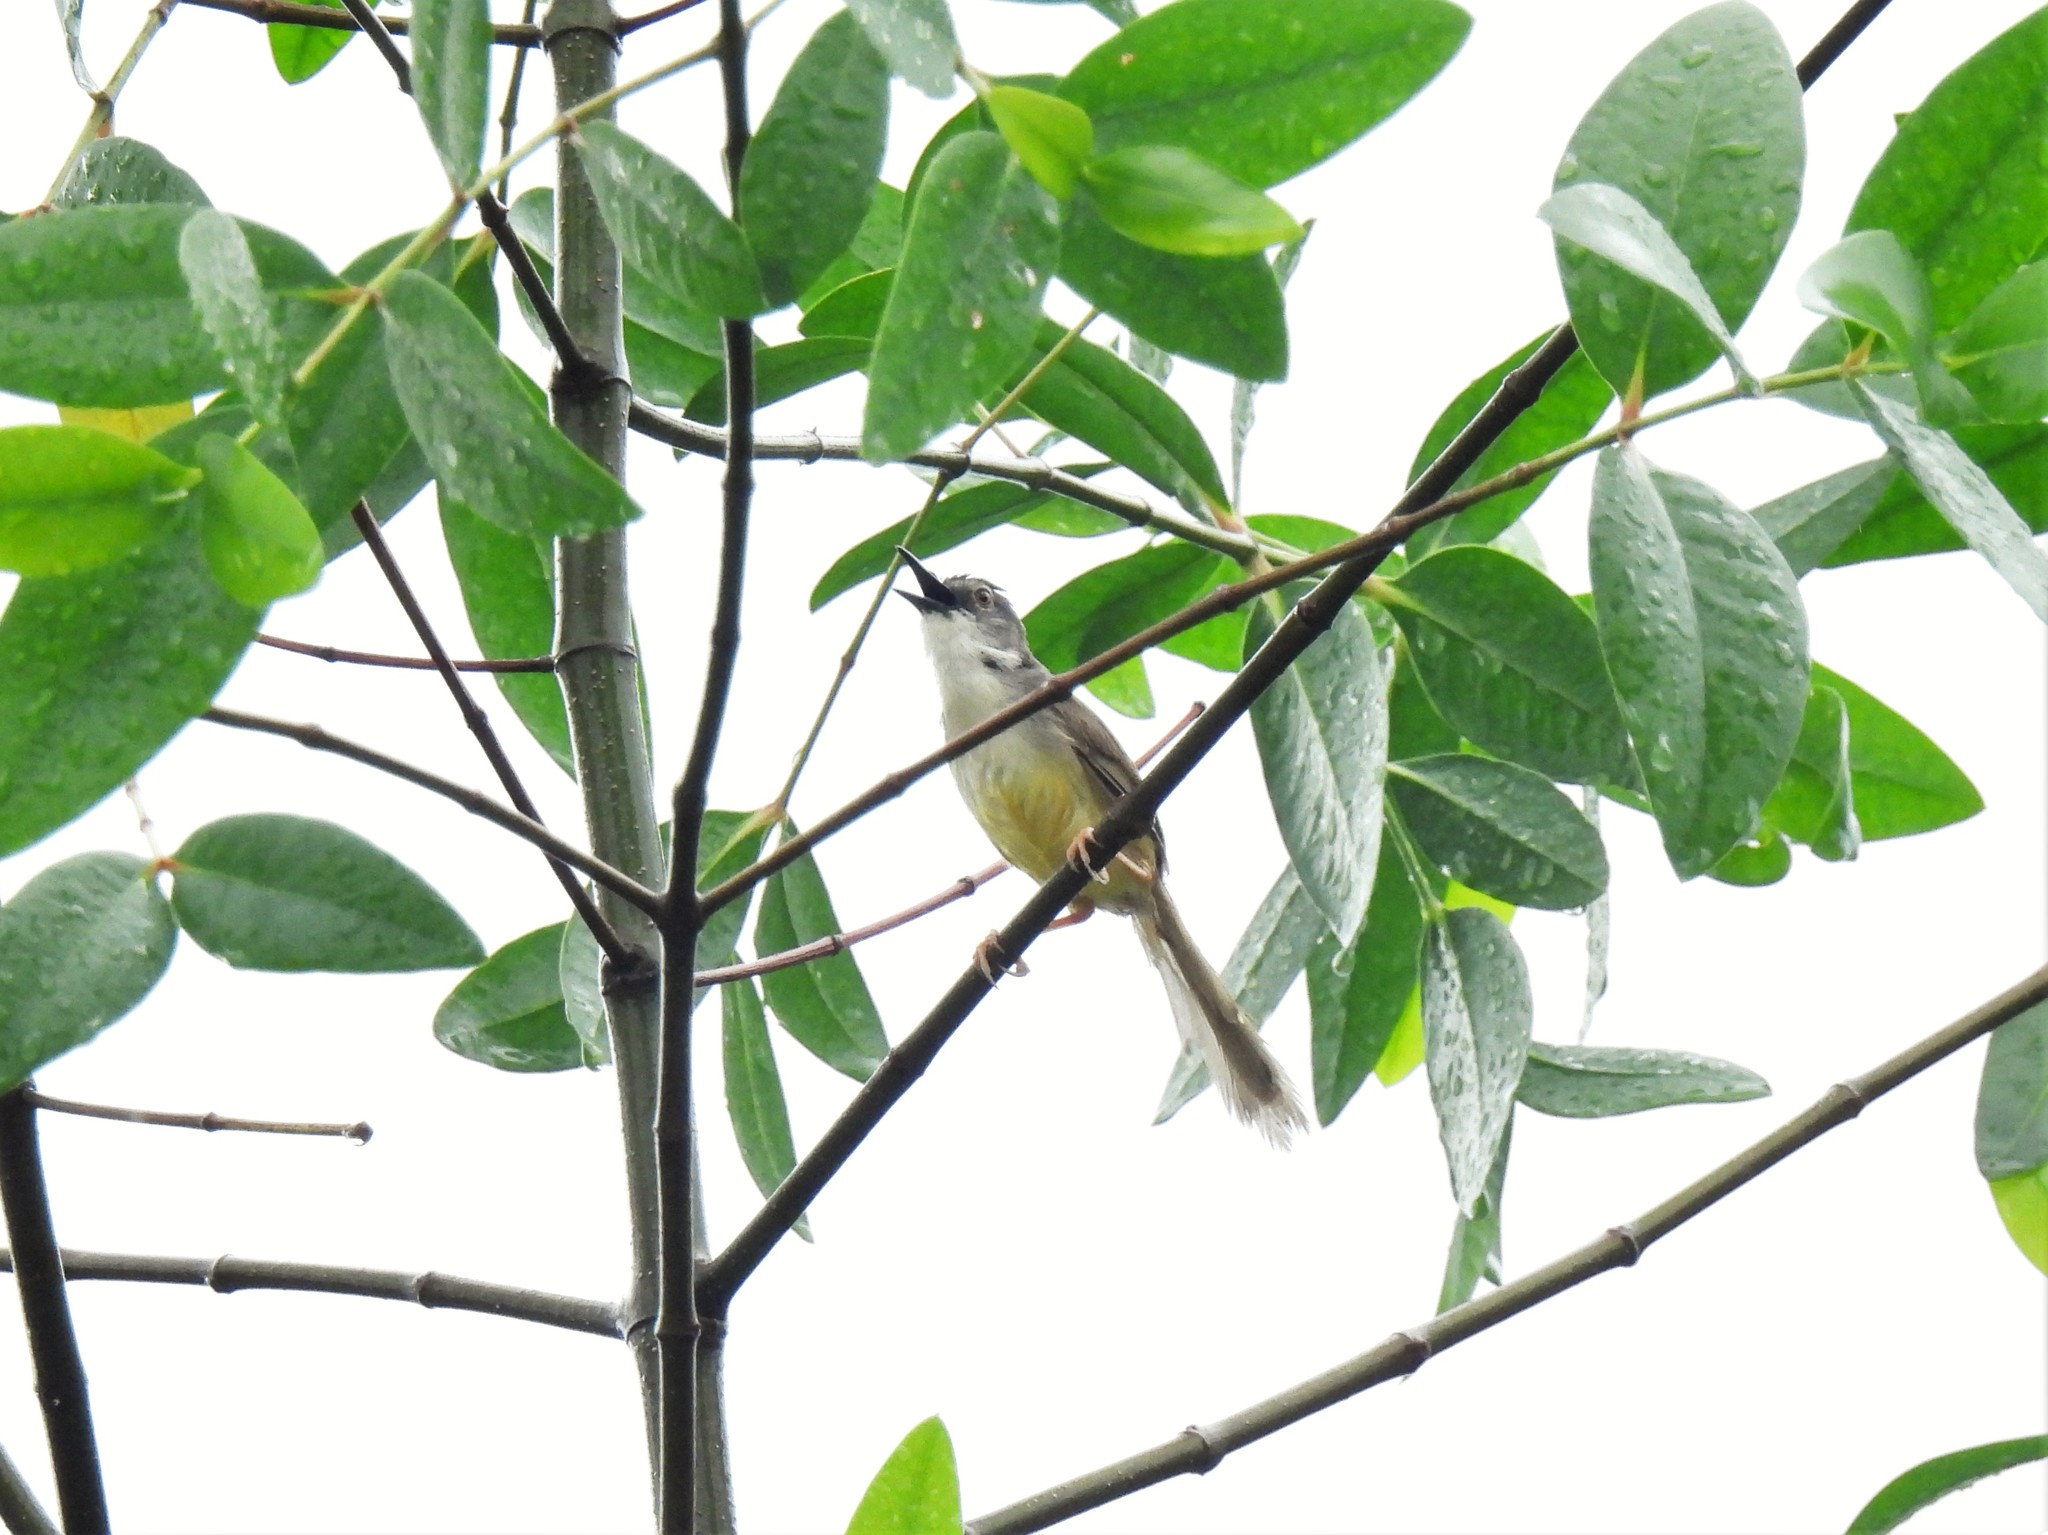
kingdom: Animalia
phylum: Chordata
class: Aves
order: Passeriformes
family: Cisticolidae
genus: Prinia
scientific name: Prinia flaviventris
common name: Yellow-bellied prinia
